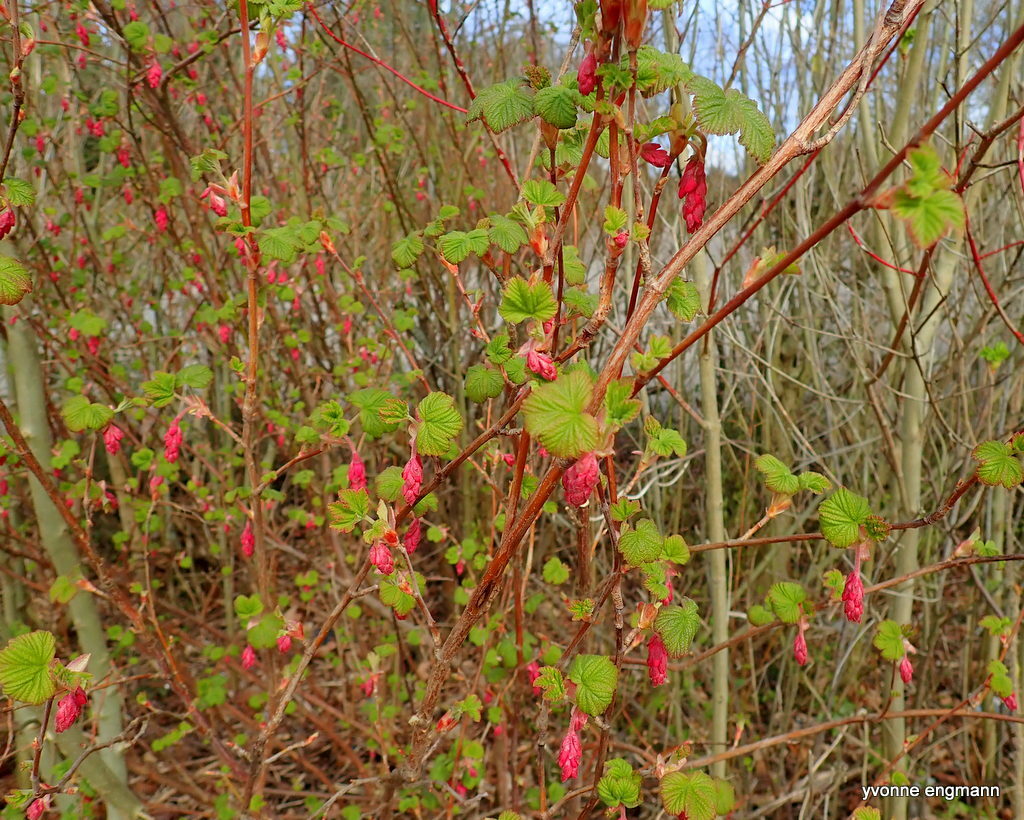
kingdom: Plantae
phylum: Tracheophyta
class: Magnoliopsida
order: Saxifragales
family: Grossulariaceae
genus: Ribes
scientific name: Ribes sanguineum
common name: Flowering currant
